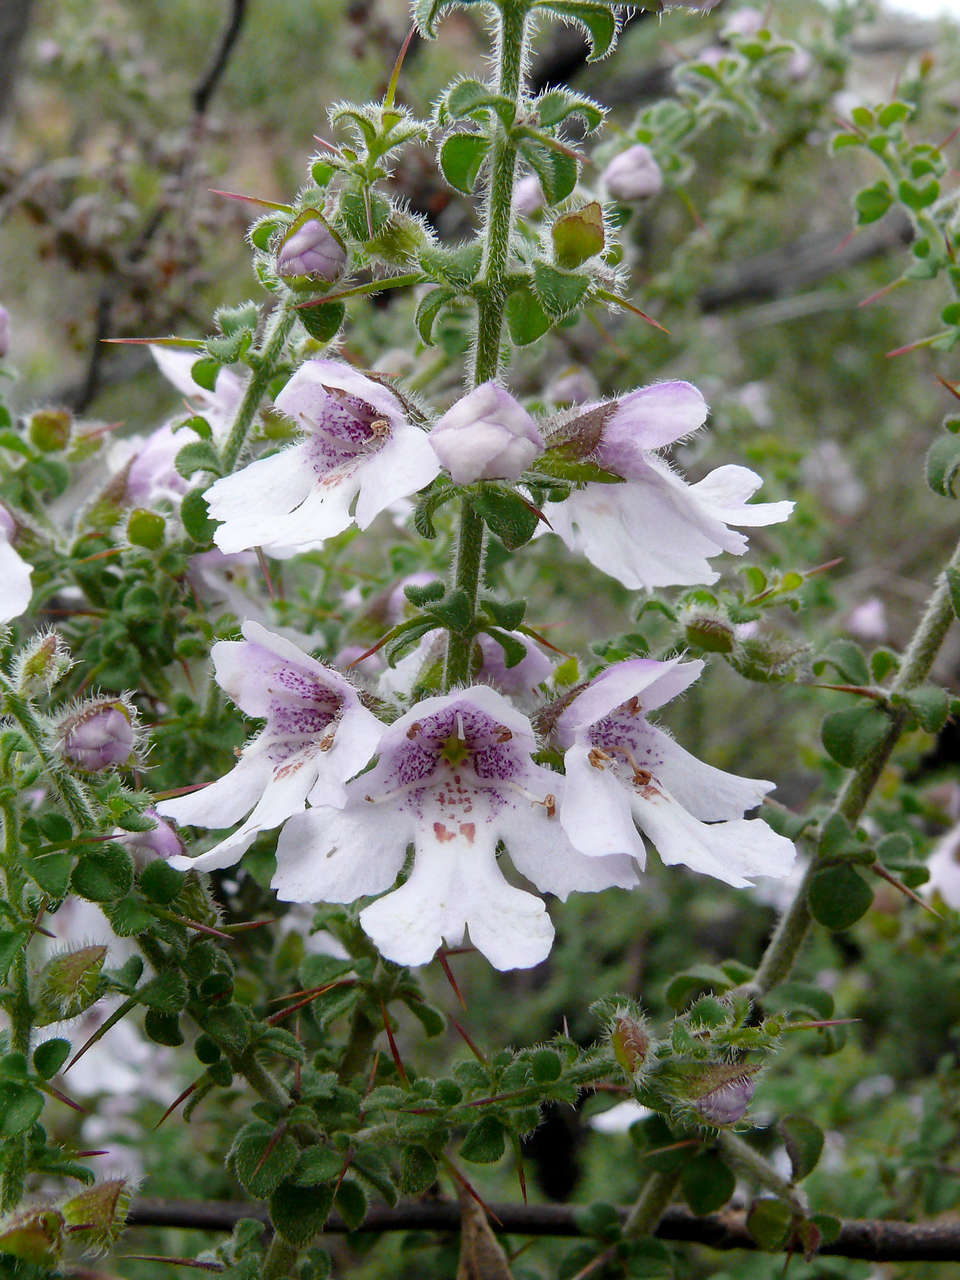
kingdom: Plantae
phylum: Tracheophyta
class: Magnoliopsida
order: Lamiales
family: Lamiaceae
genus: Prostanthera
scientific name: Prostanthera arapilensis
